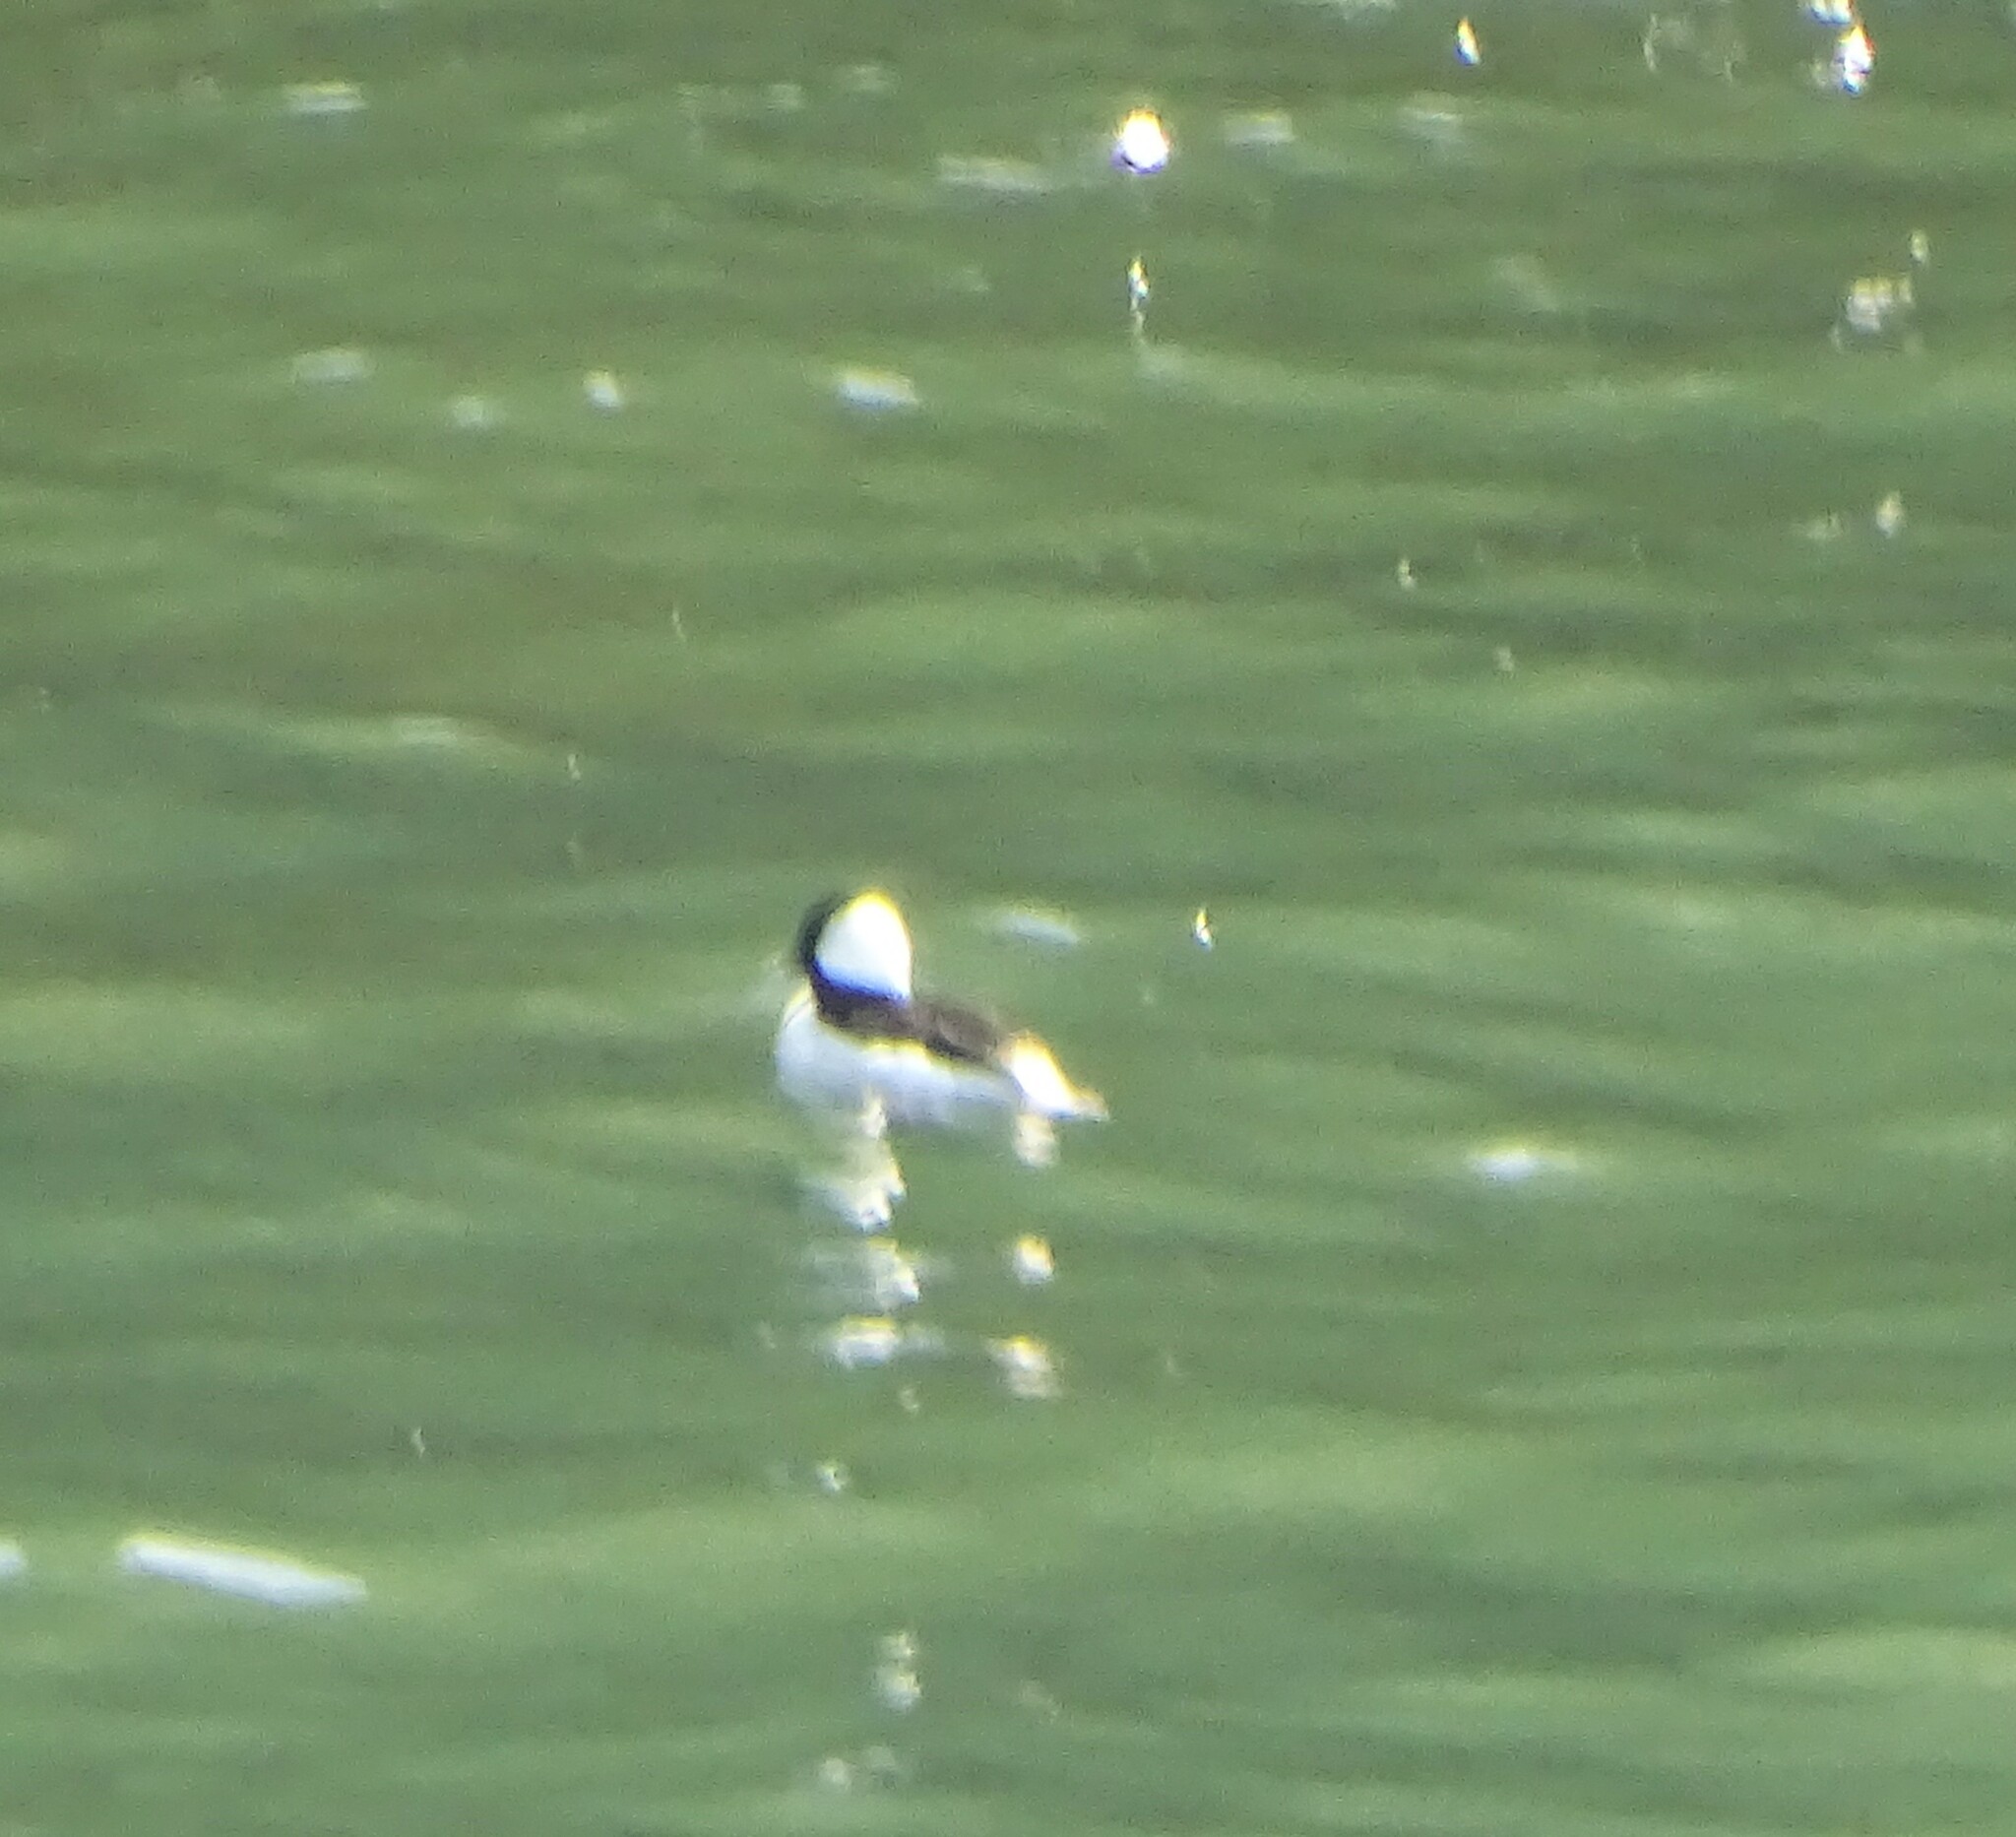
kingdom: Animalia
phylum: Chordata
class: Aves
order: Anseriformes
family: Anatidae
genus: Bucephala
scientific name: Bucephala albeola
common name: Bufflehead
